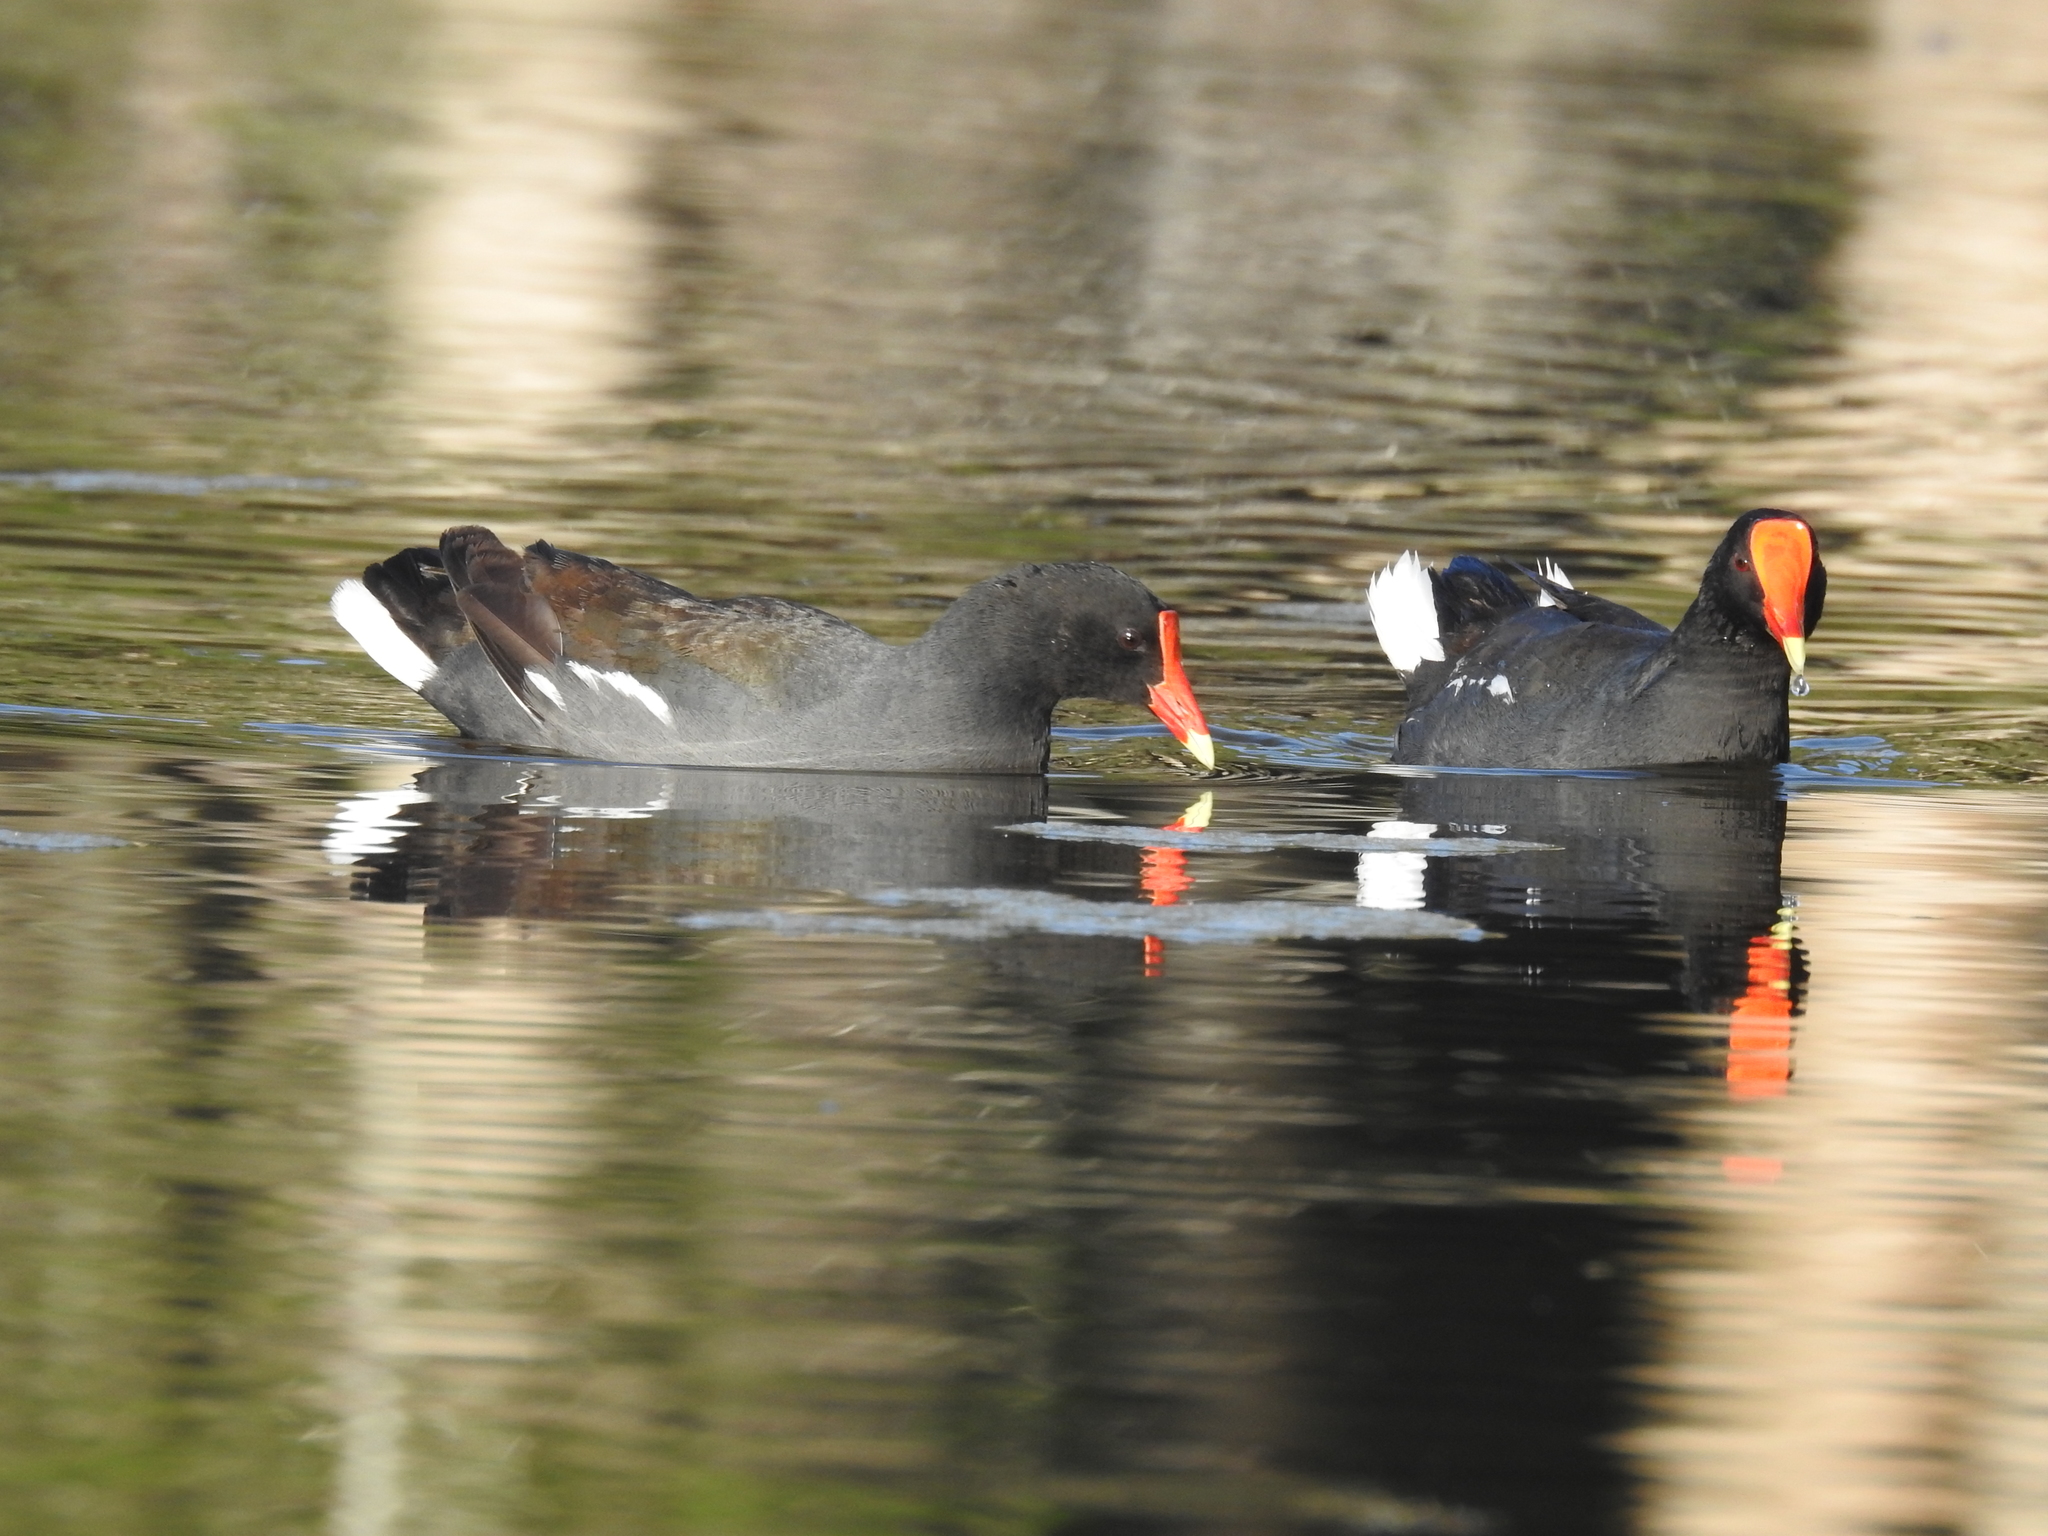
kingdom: Animalia
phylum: Chordata
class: Aves
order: Gruiformes
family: Rallidae
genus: Gallinula
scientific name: Gallinula chloropus
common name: Common moorhen
